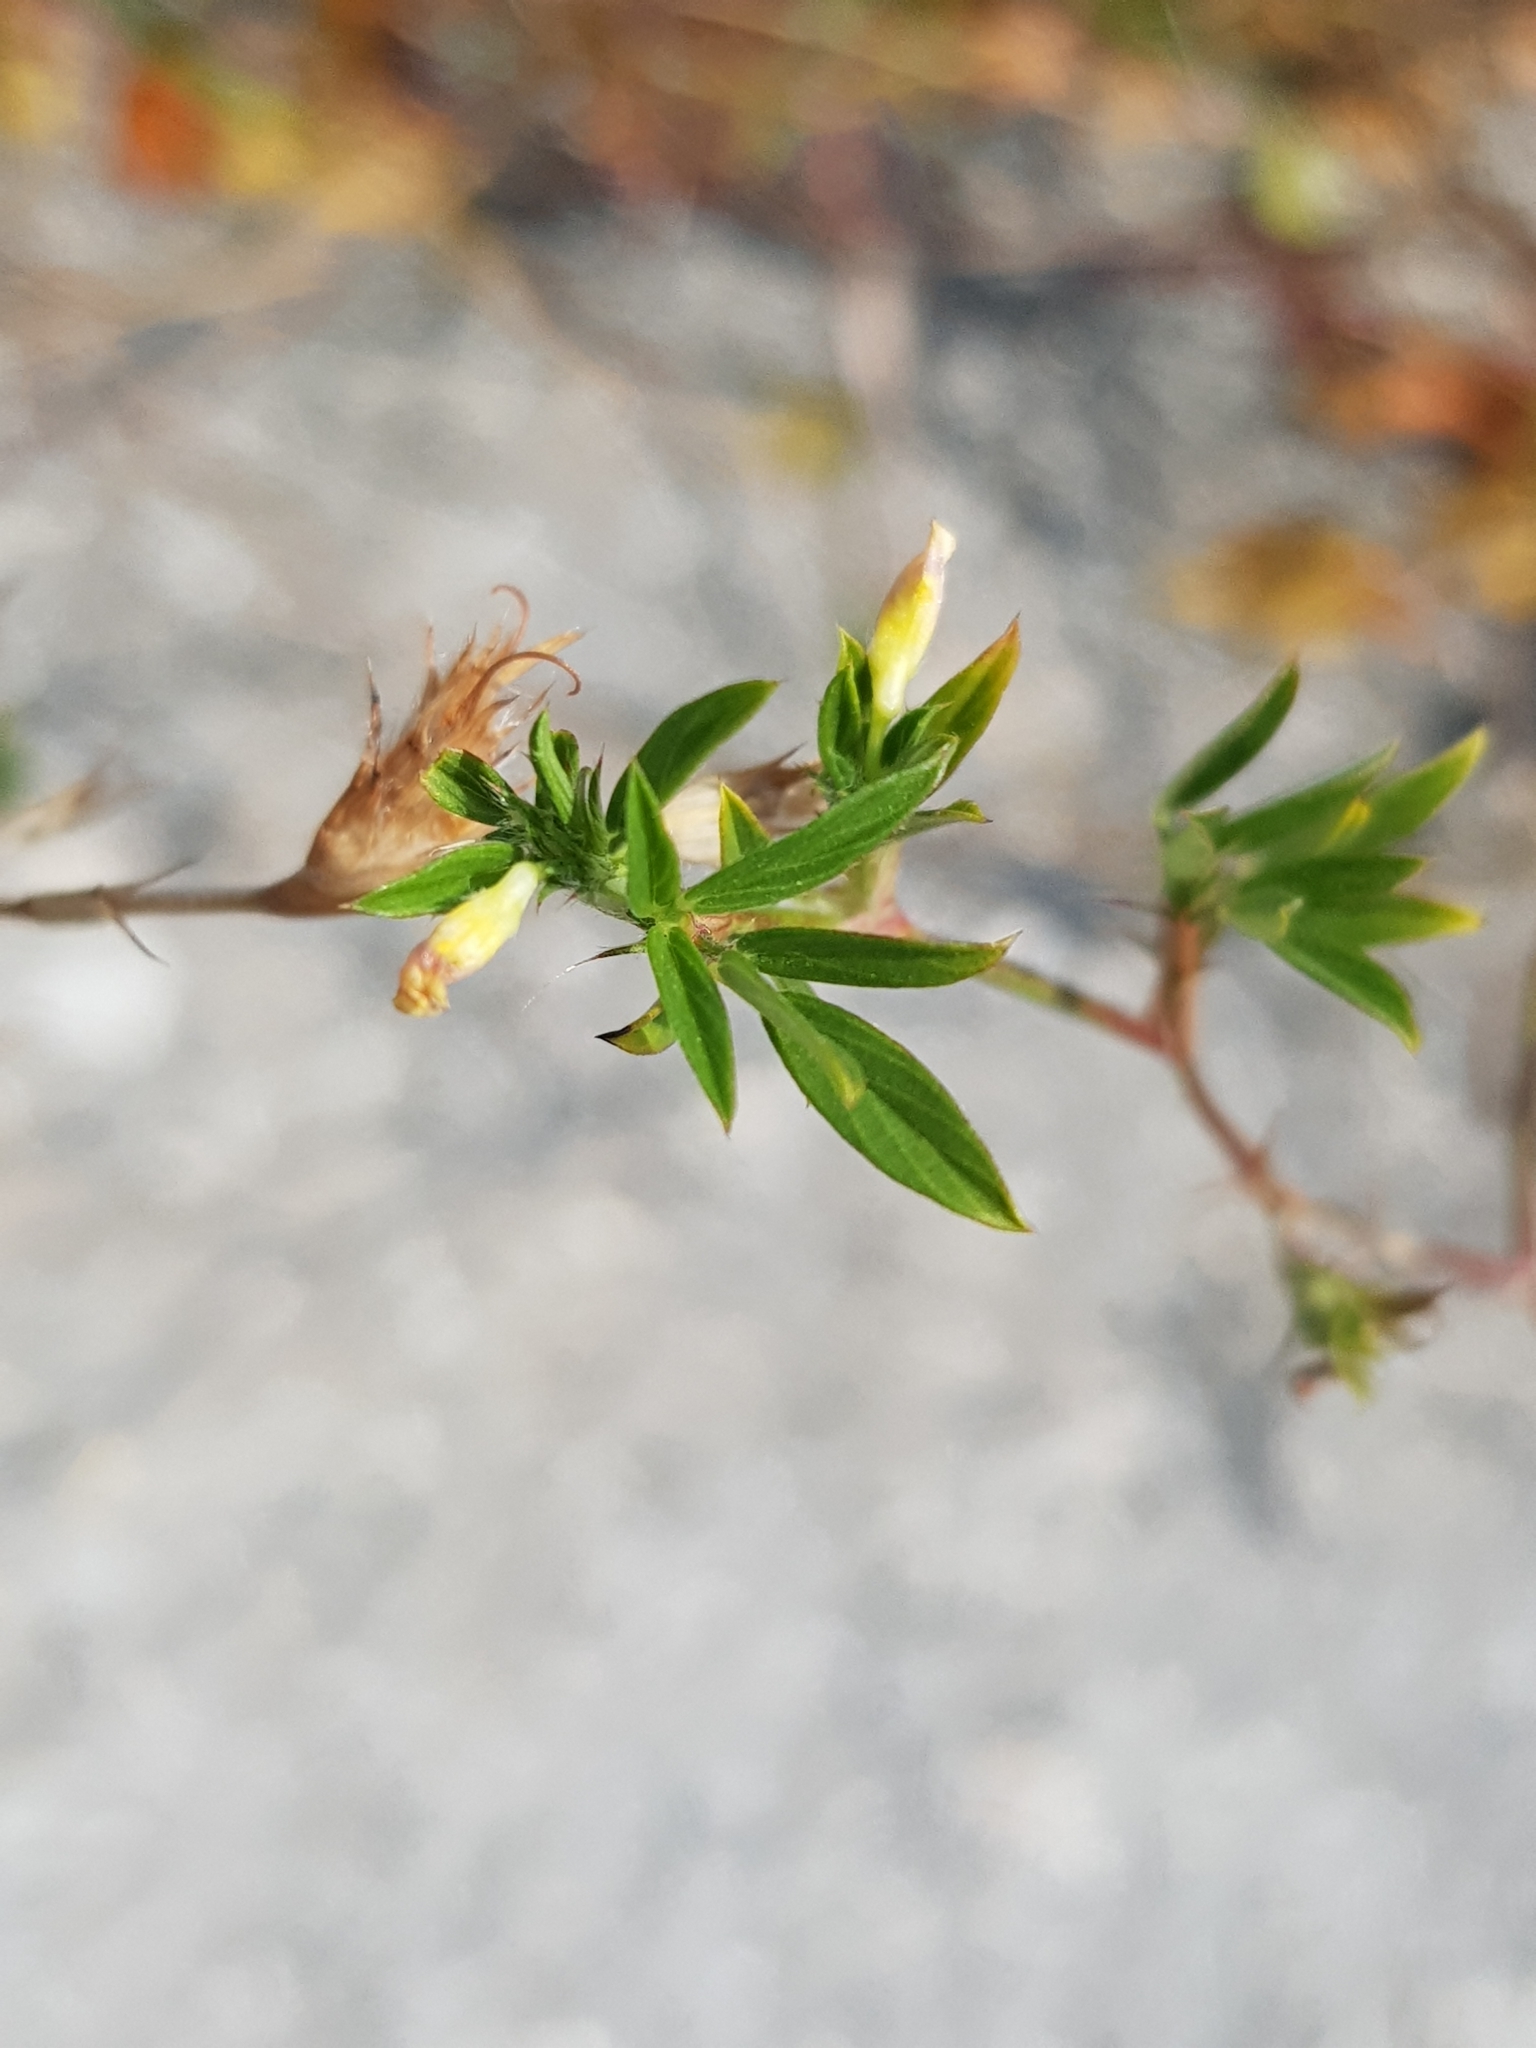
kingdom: Plantae
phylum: Tracheophyta
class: Magnoliopsida
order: Fabales
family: Fabaceae
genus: Stylosanthes
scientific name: Stylosanthes humilis
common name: Townsville stylo
